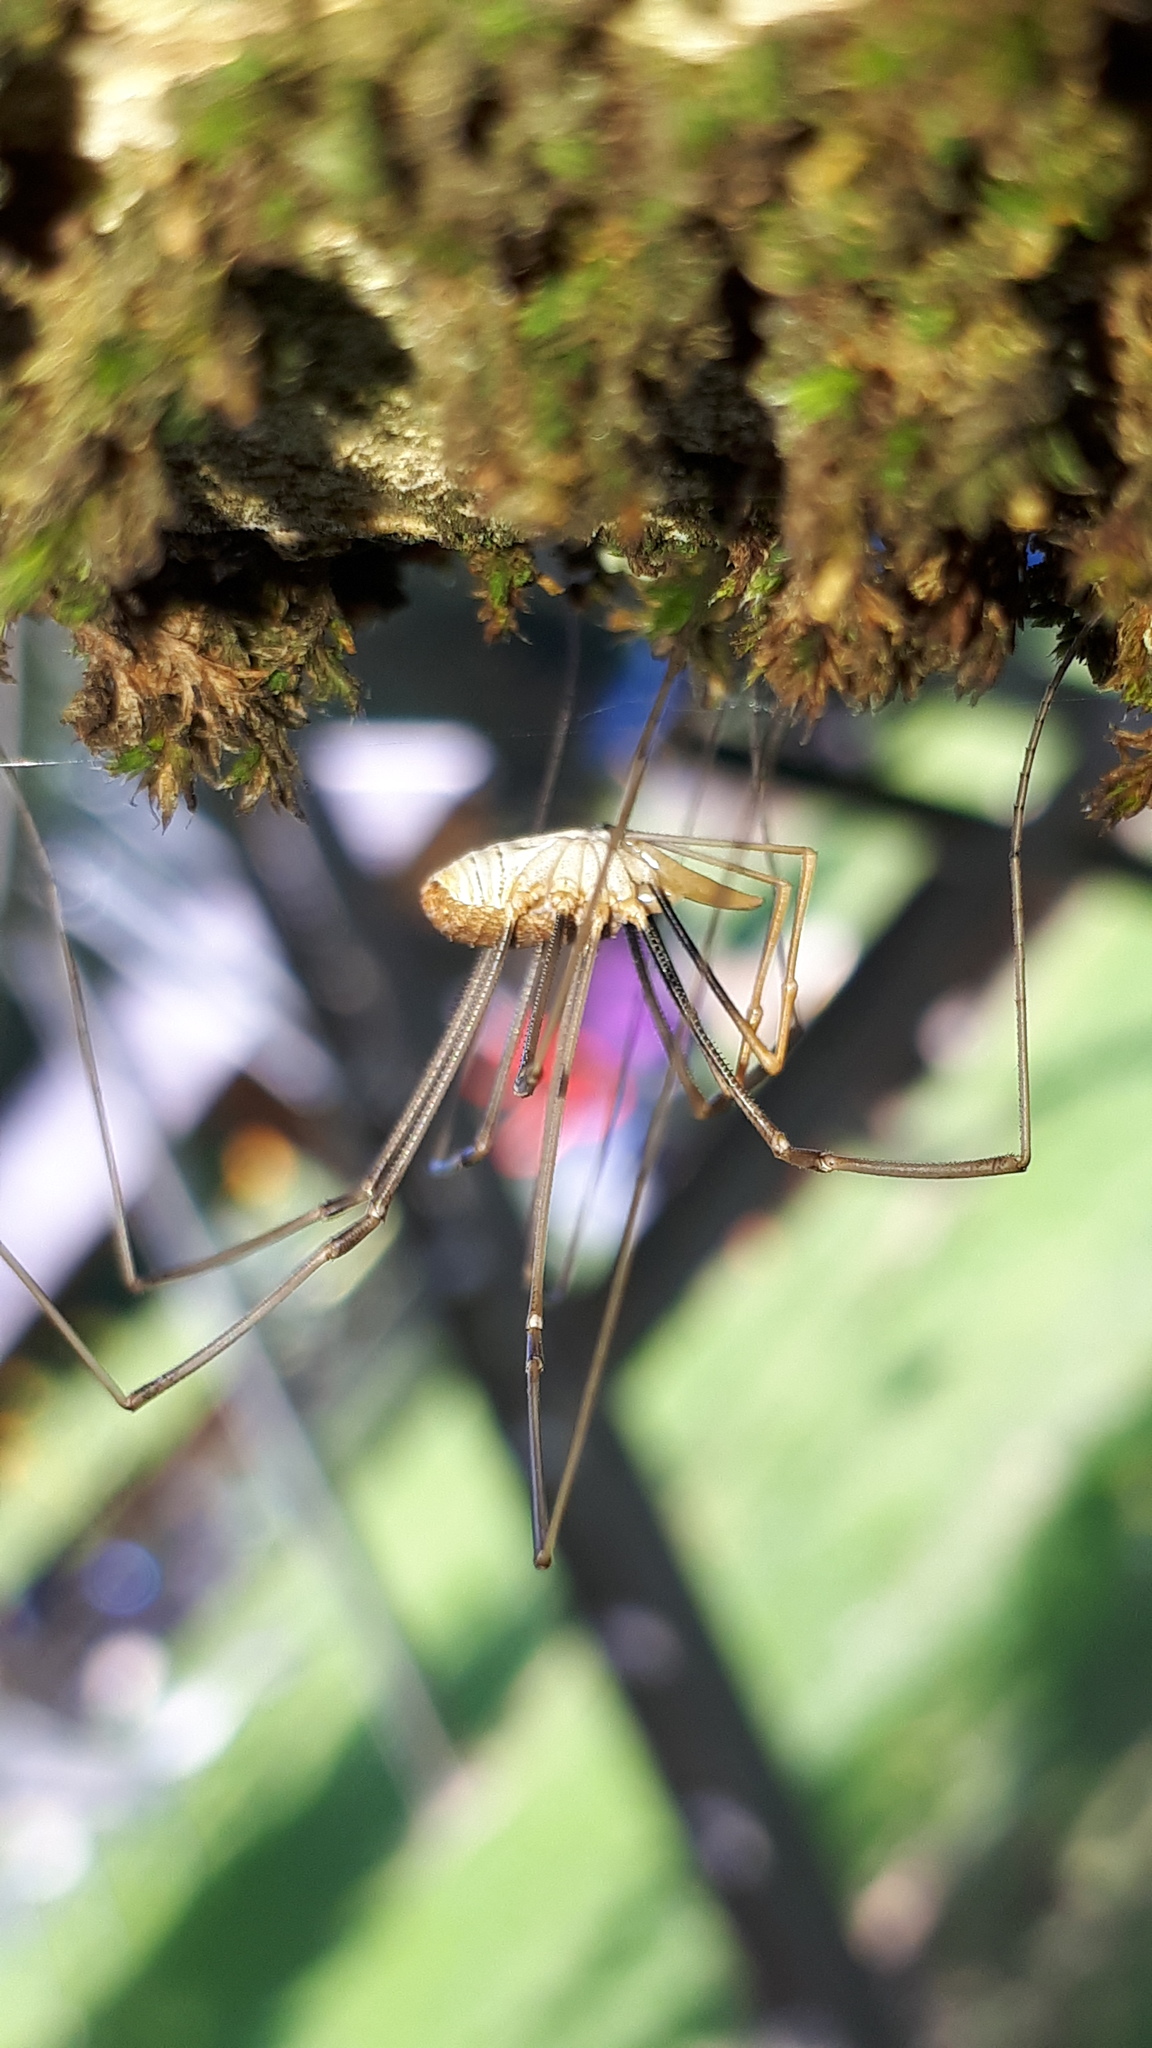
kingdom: Animalia
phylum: Arthropoda
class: Arachnida
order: Opiliones
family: Phalangiidae
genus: Phalangium
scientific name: Phalangium opilio
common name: Daddy longleg
